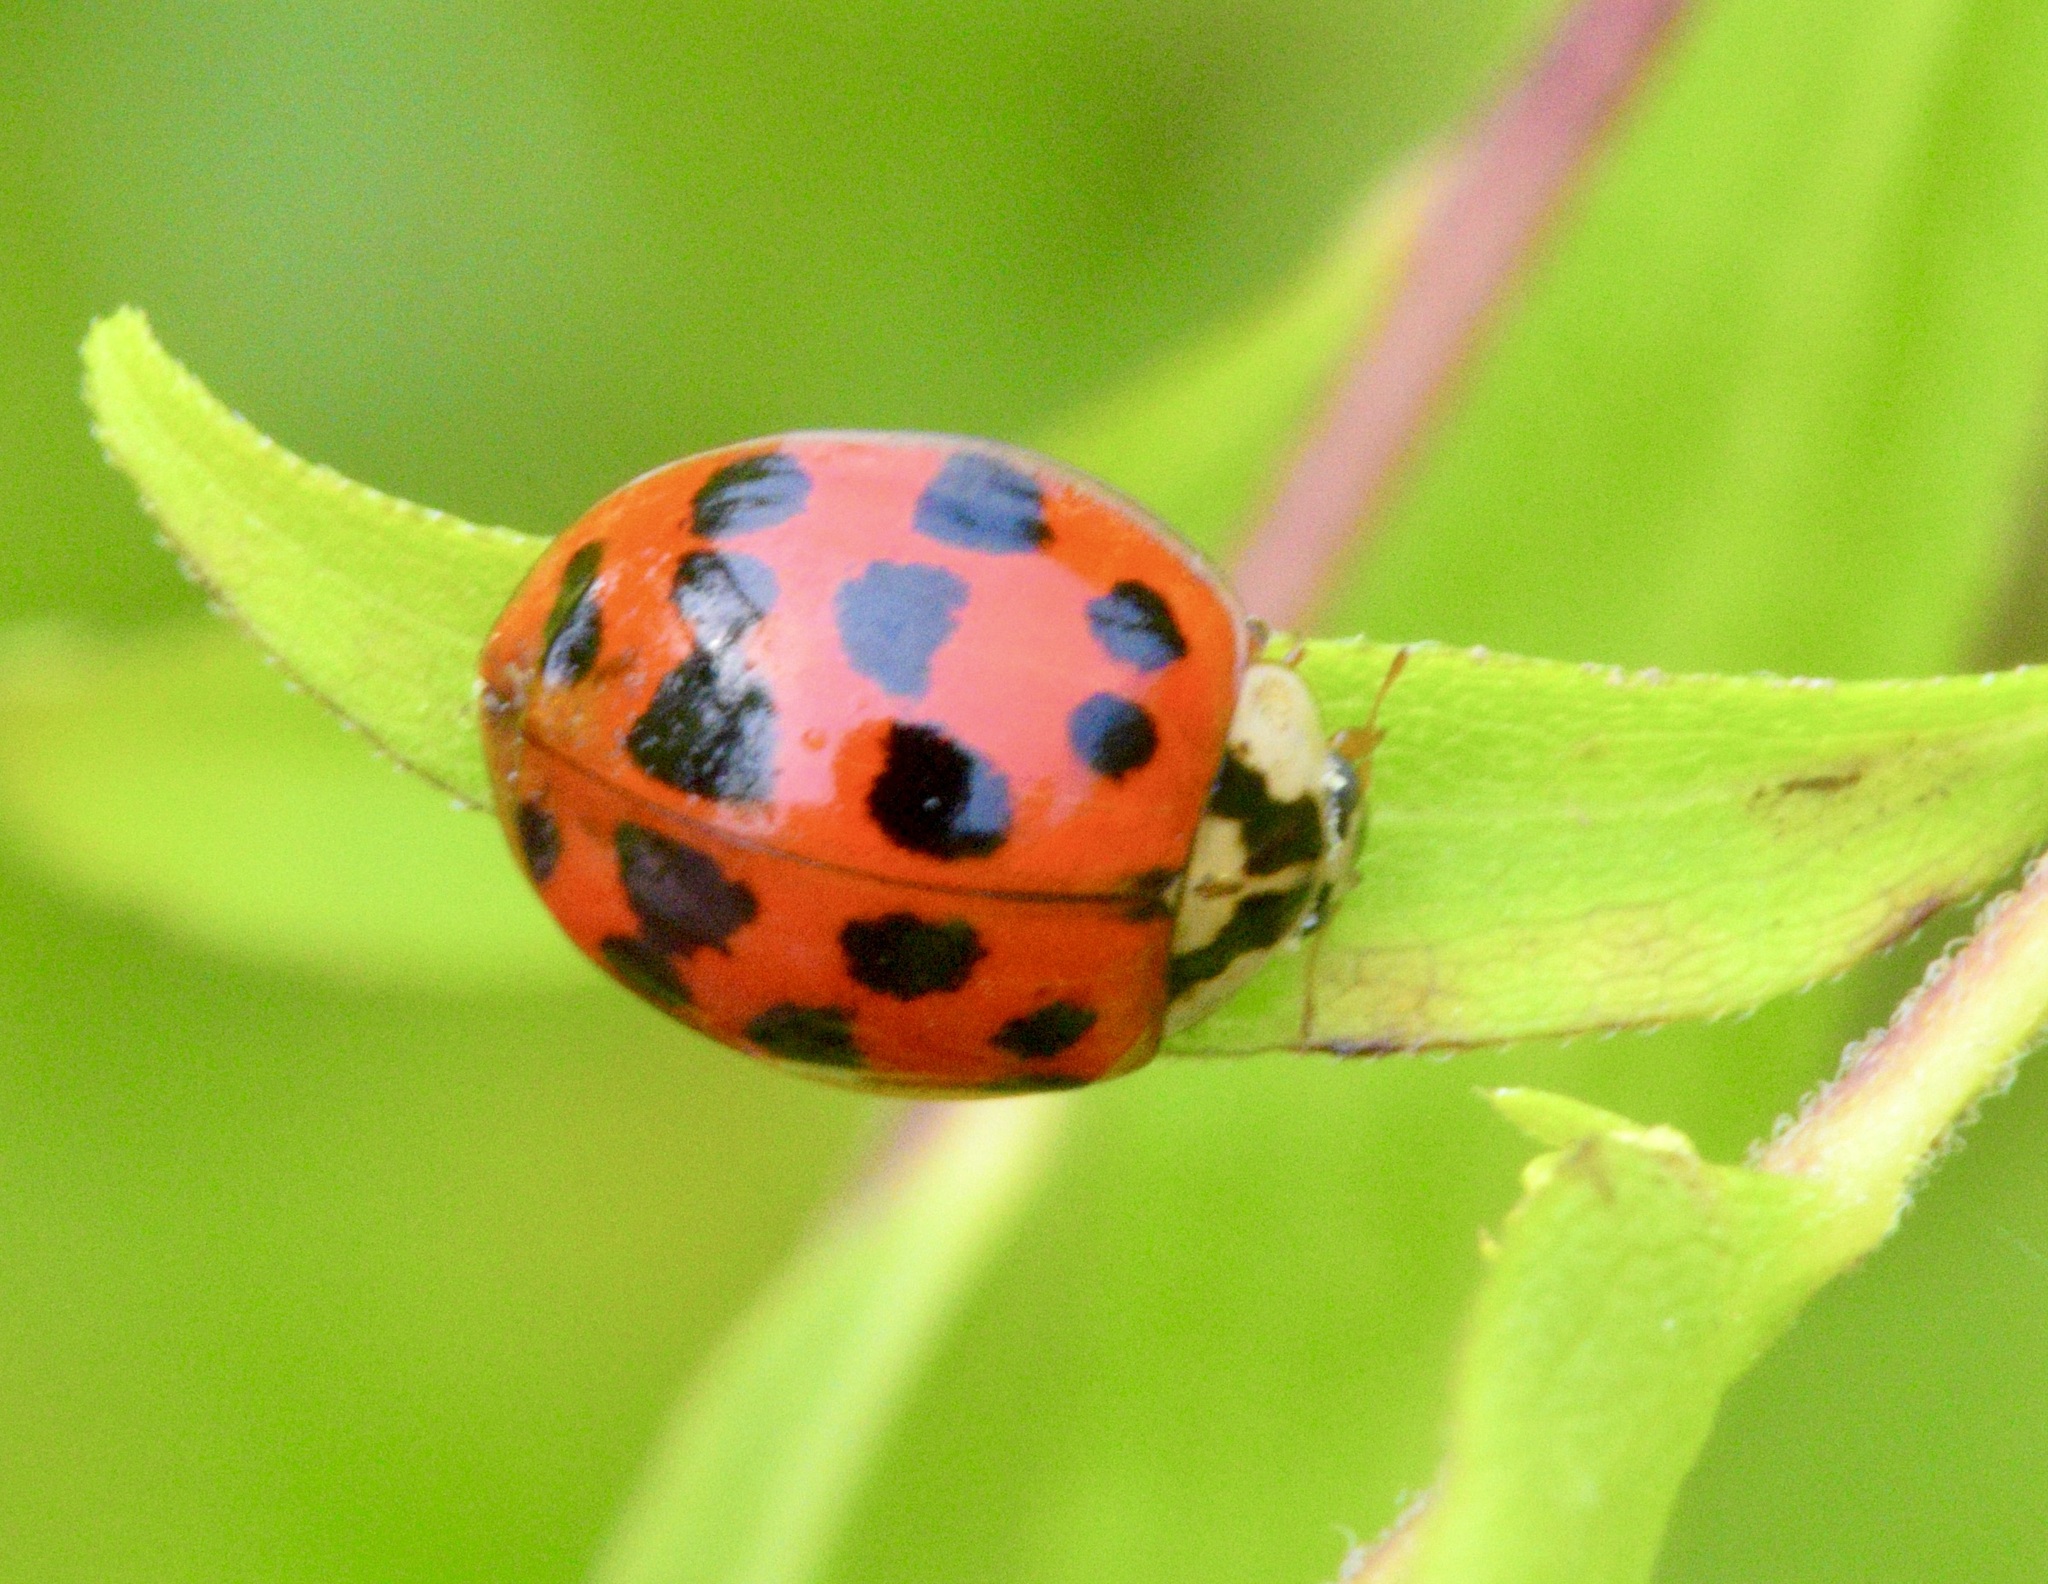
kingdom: Animalia
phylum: Arthropoda
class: Insecta
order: Coleoptera
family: Coccinellidae
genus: Harmonia
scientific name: Harmonia axyridis
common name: Harlequin ladybird
